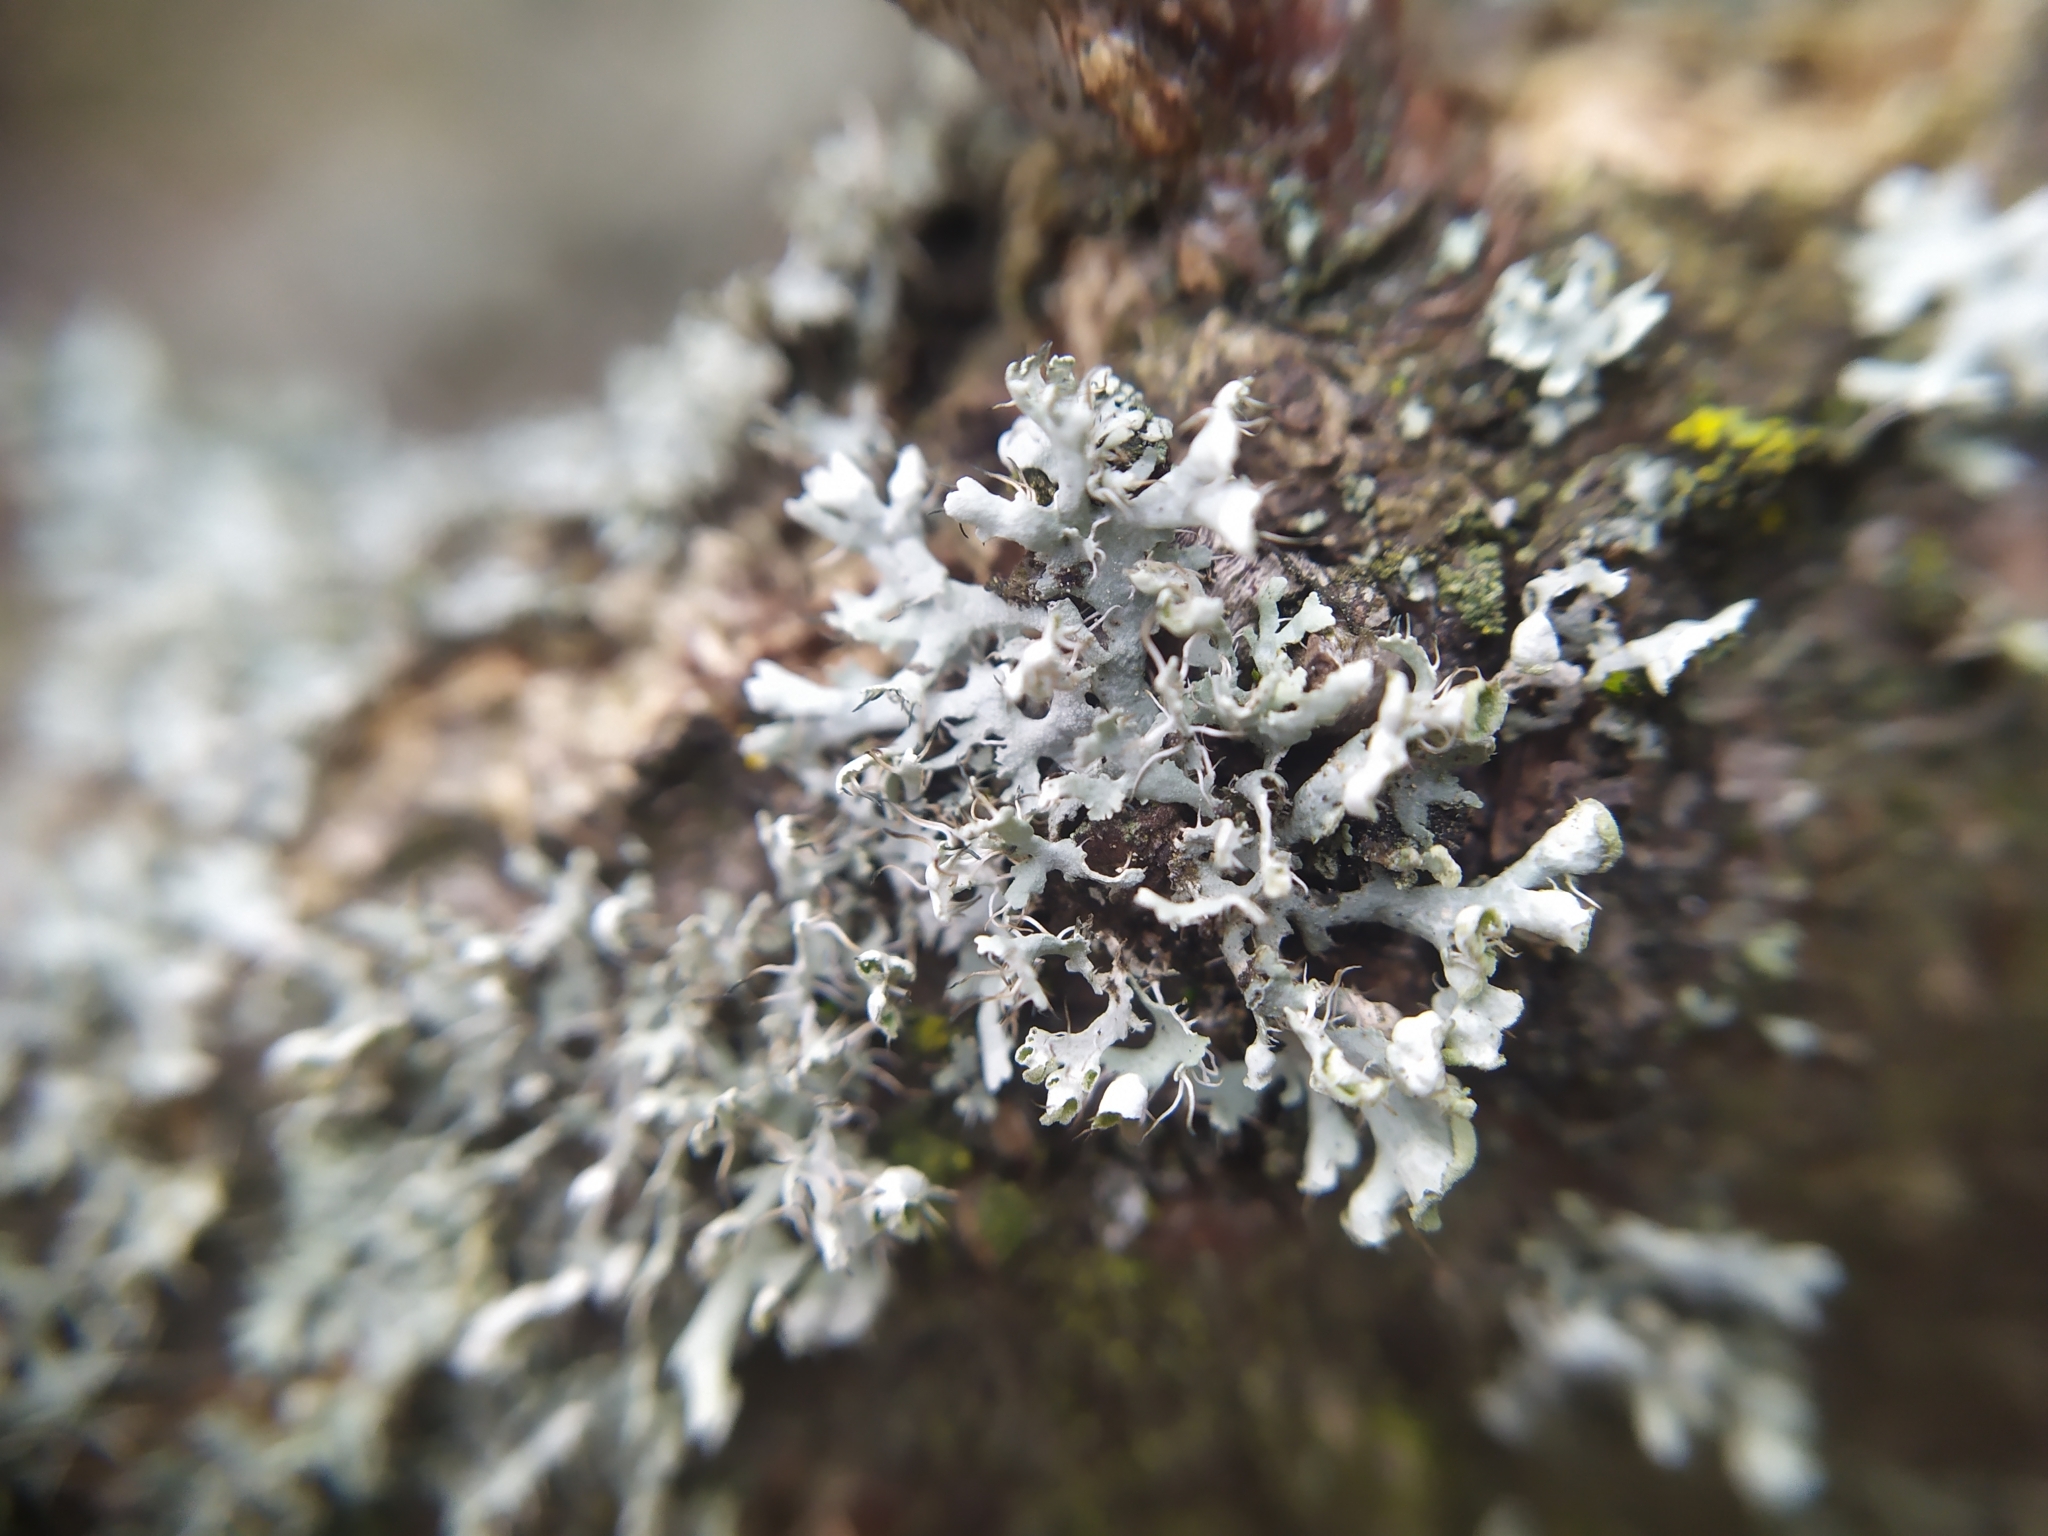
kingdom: Fungi
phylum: Ascomycota
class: Lecanoromycetes
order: Caliciales
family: Physciaceae
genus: Physcia
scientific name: Physcia adscendens
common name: Hooded rosette lichen
